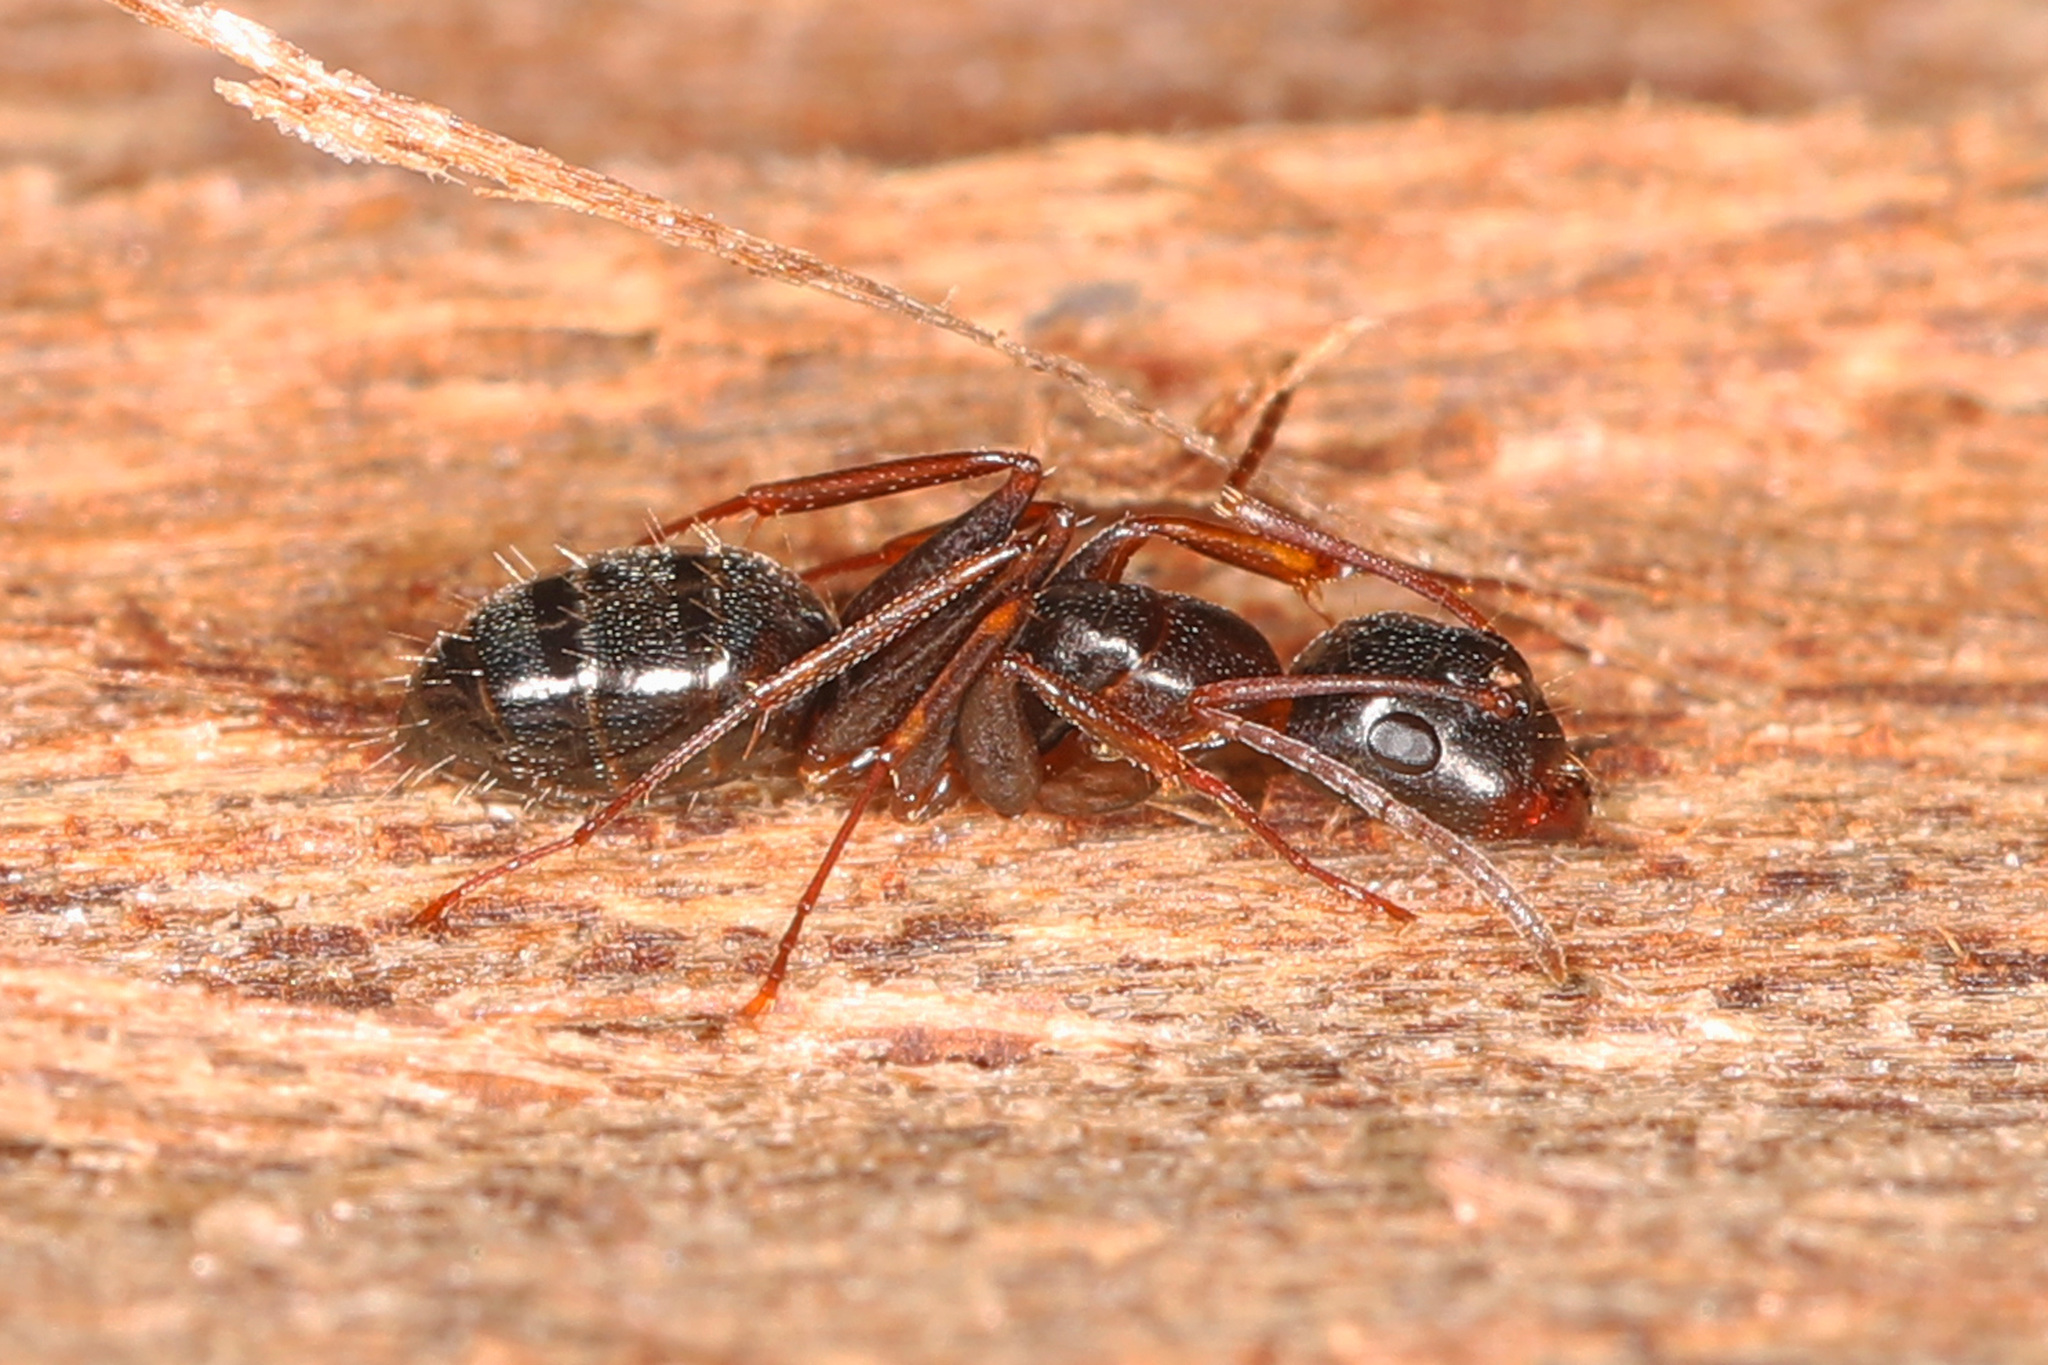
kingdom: Animalia
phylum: Arthropoda
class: Insecta
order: Hymenoptera
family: Formicidae
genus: Camponotus
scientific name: Camponotus nearcticus
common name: Smaller carpenter ant
